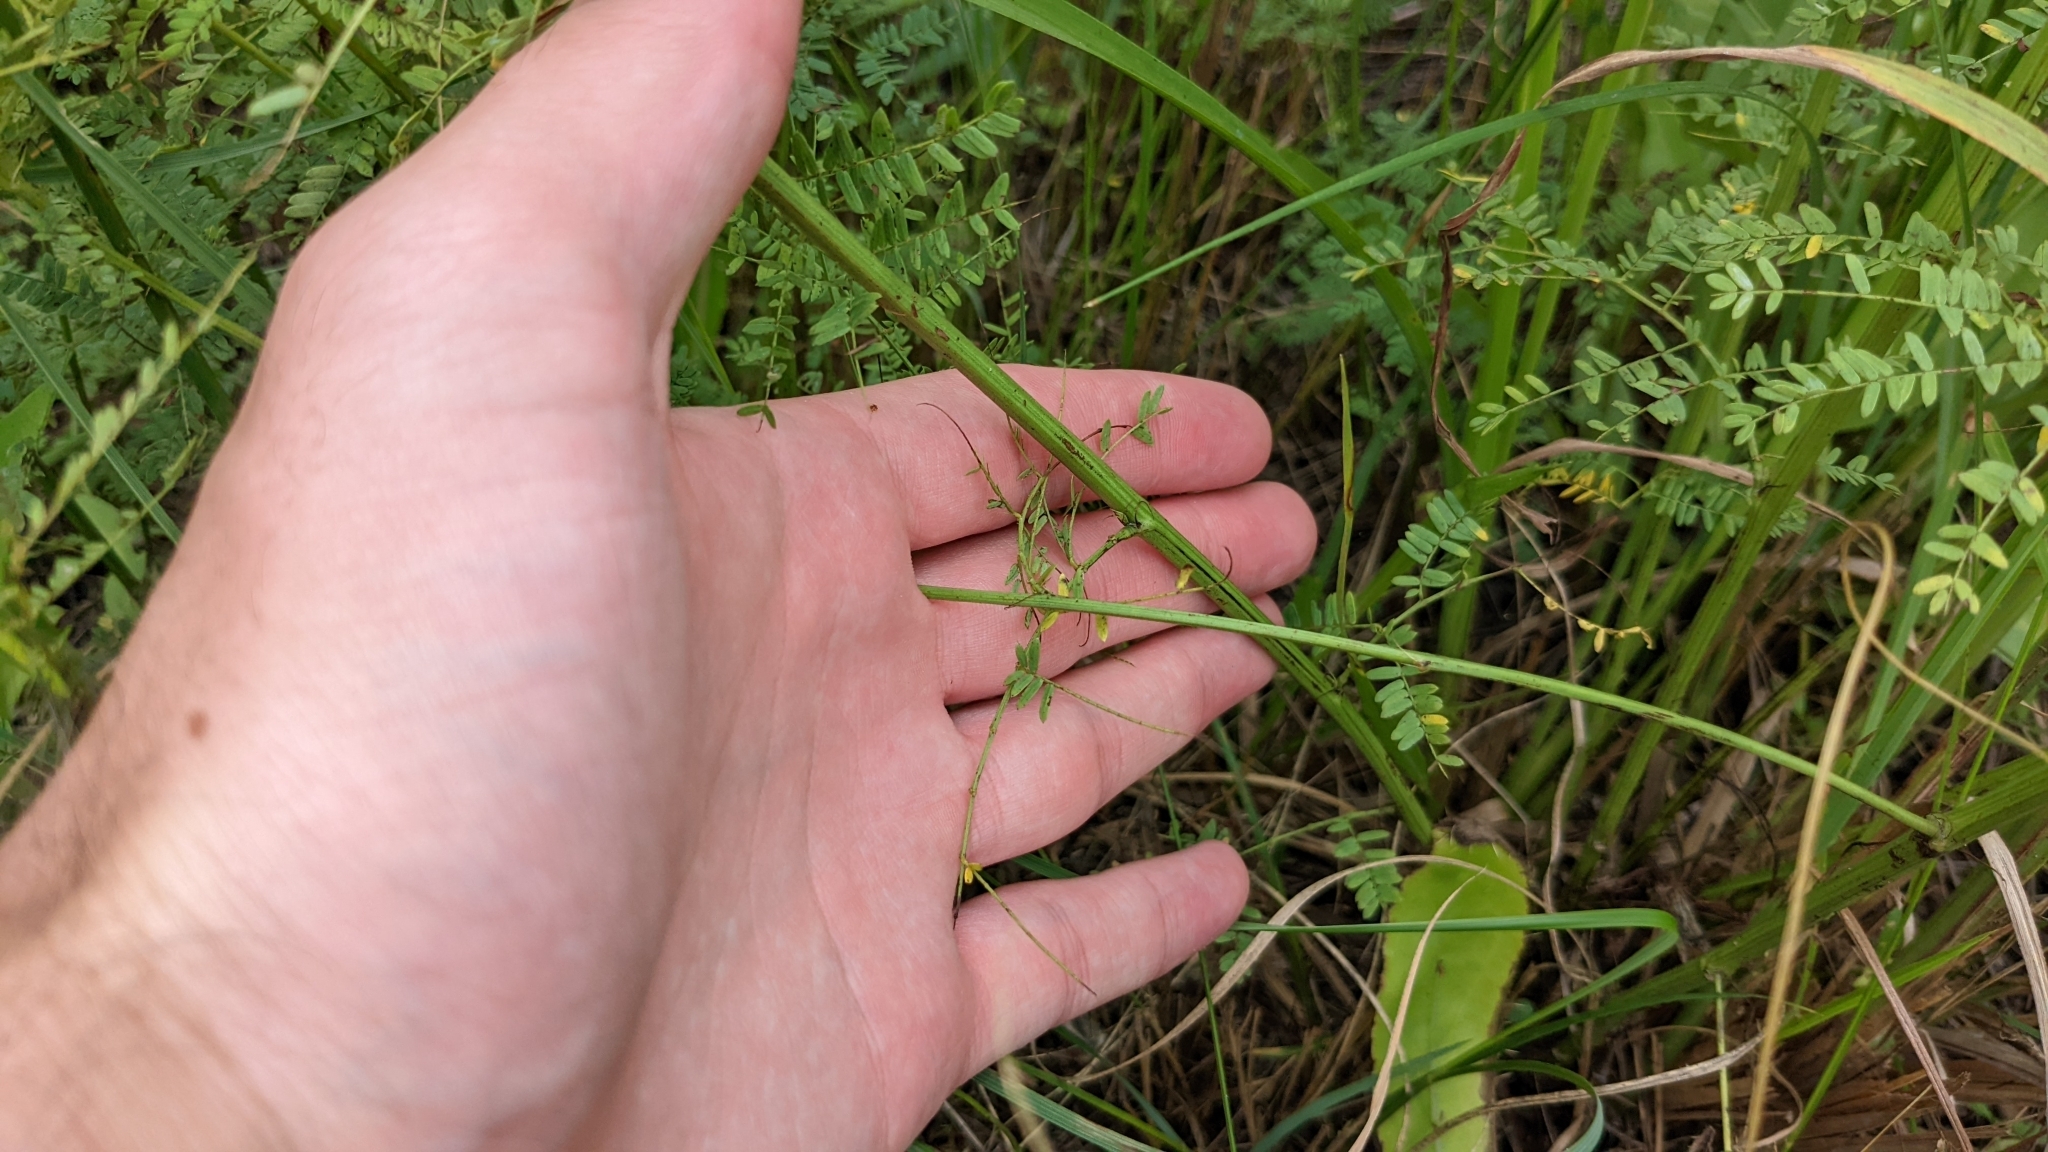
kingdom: Plantae
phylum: Tracheophyta
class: Magnoliopsida
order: Fabales
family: Fabaceae
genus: Desmanthus
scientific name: Desmanthus illinoensis
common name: Illinois bundle-flower
